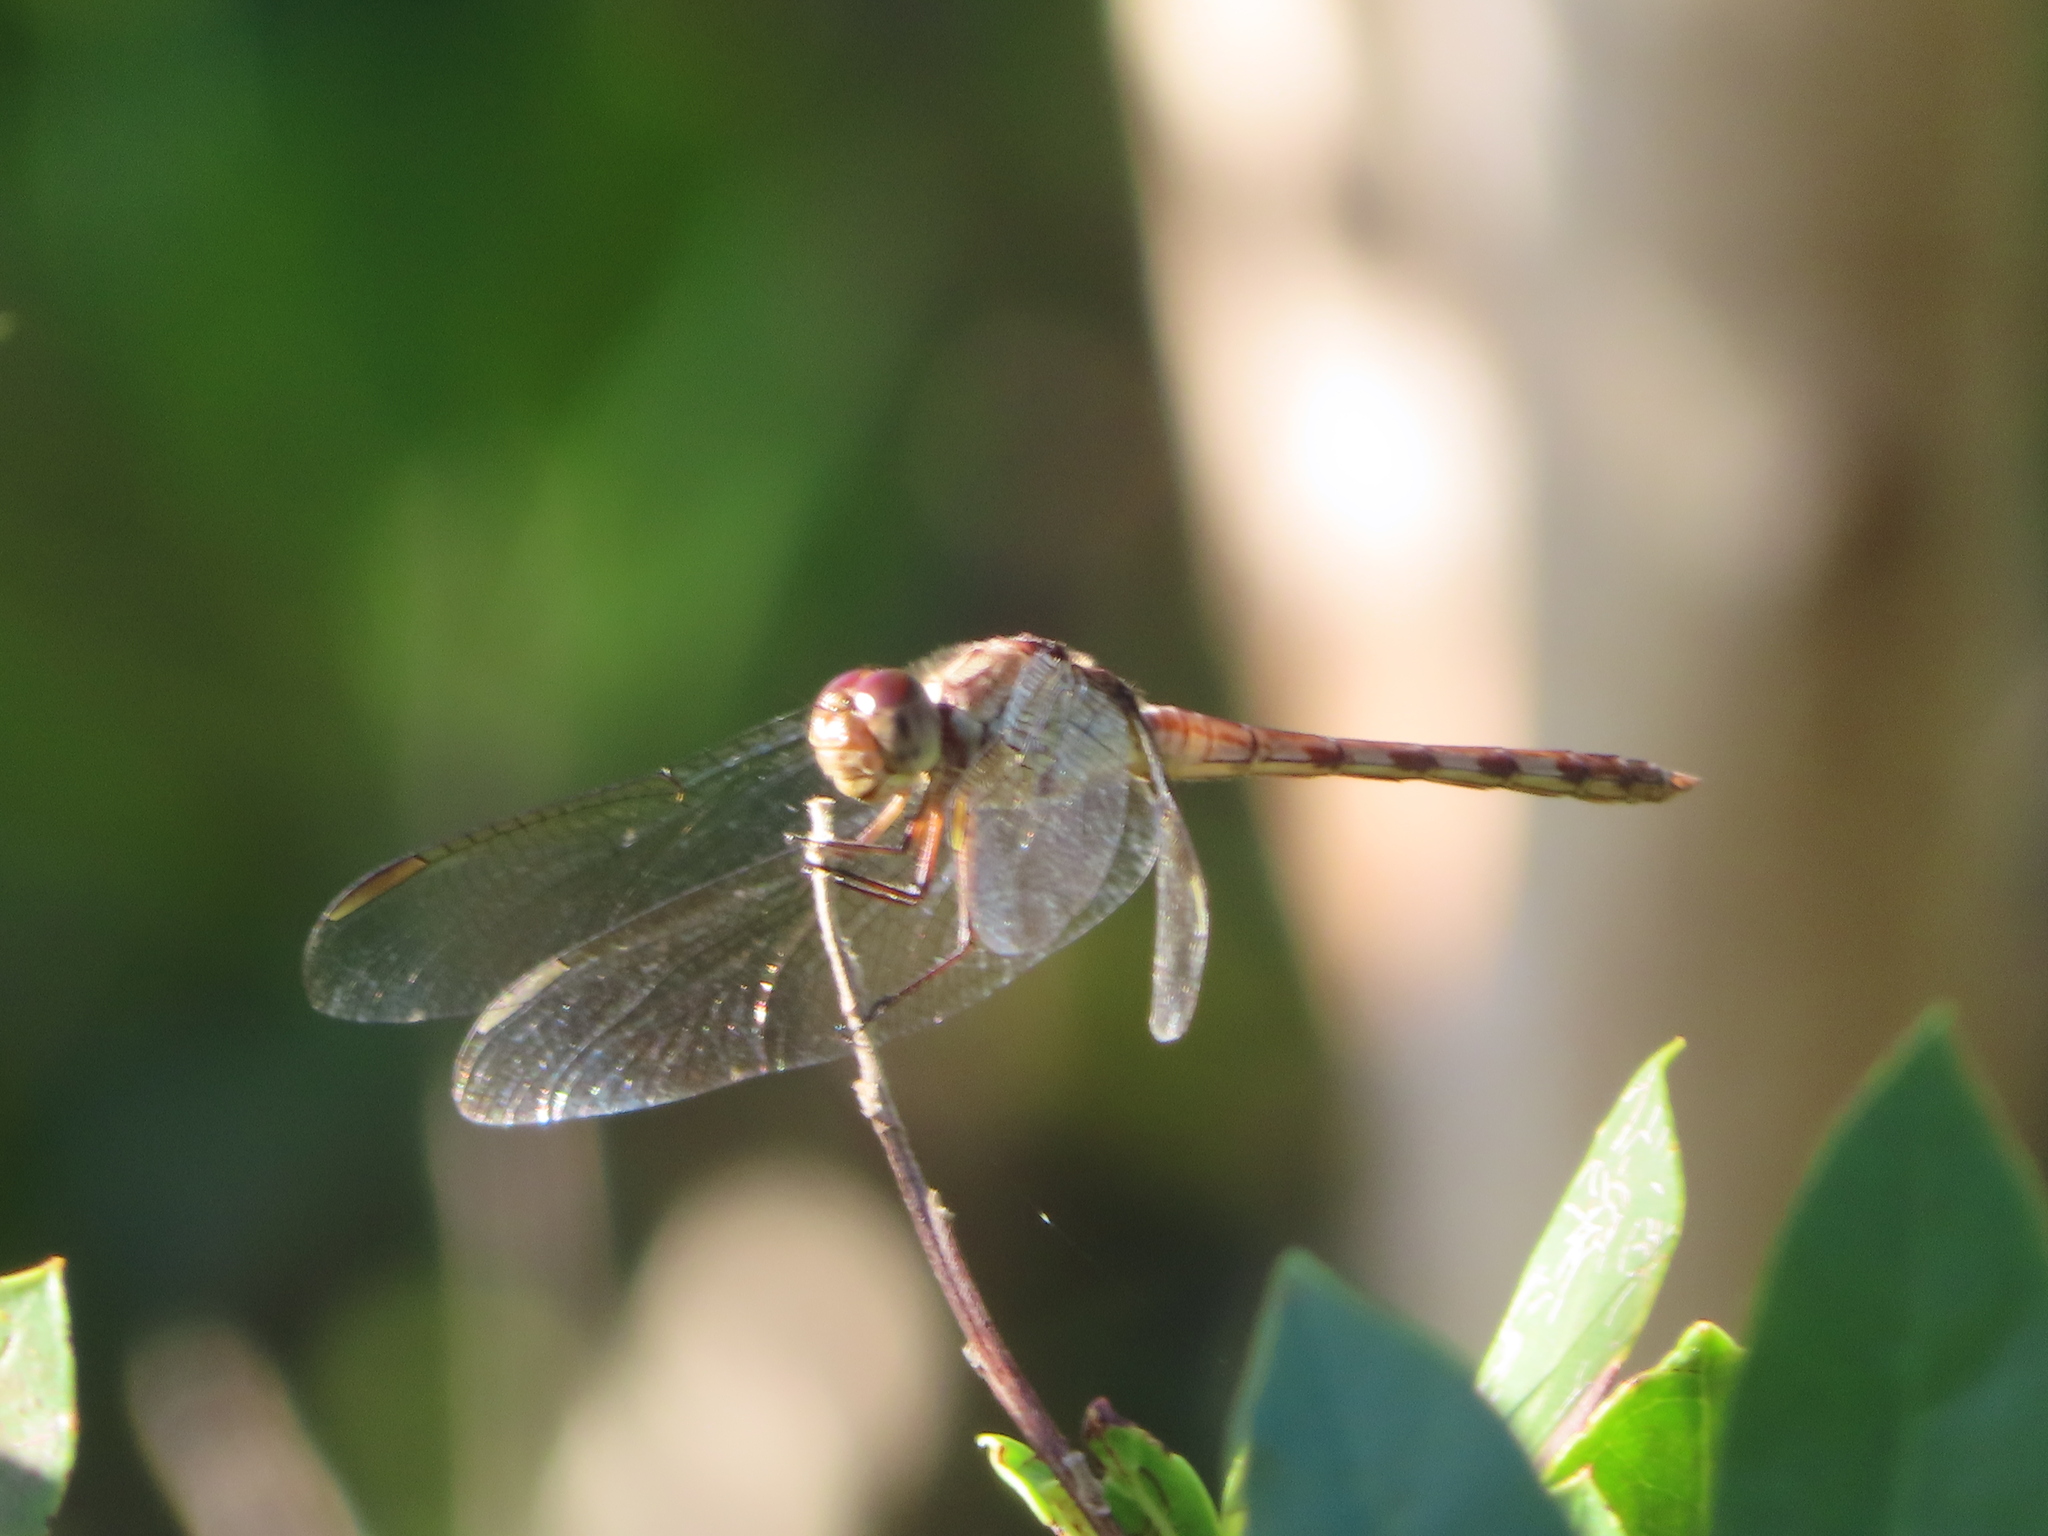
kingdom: Animalia
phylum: Arthropoda
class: Insecta
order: Odonata
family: Libellulidae
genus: Erythrodiplax
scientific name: Erythrodiplax umbrata
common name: Band-winged dragonlet
